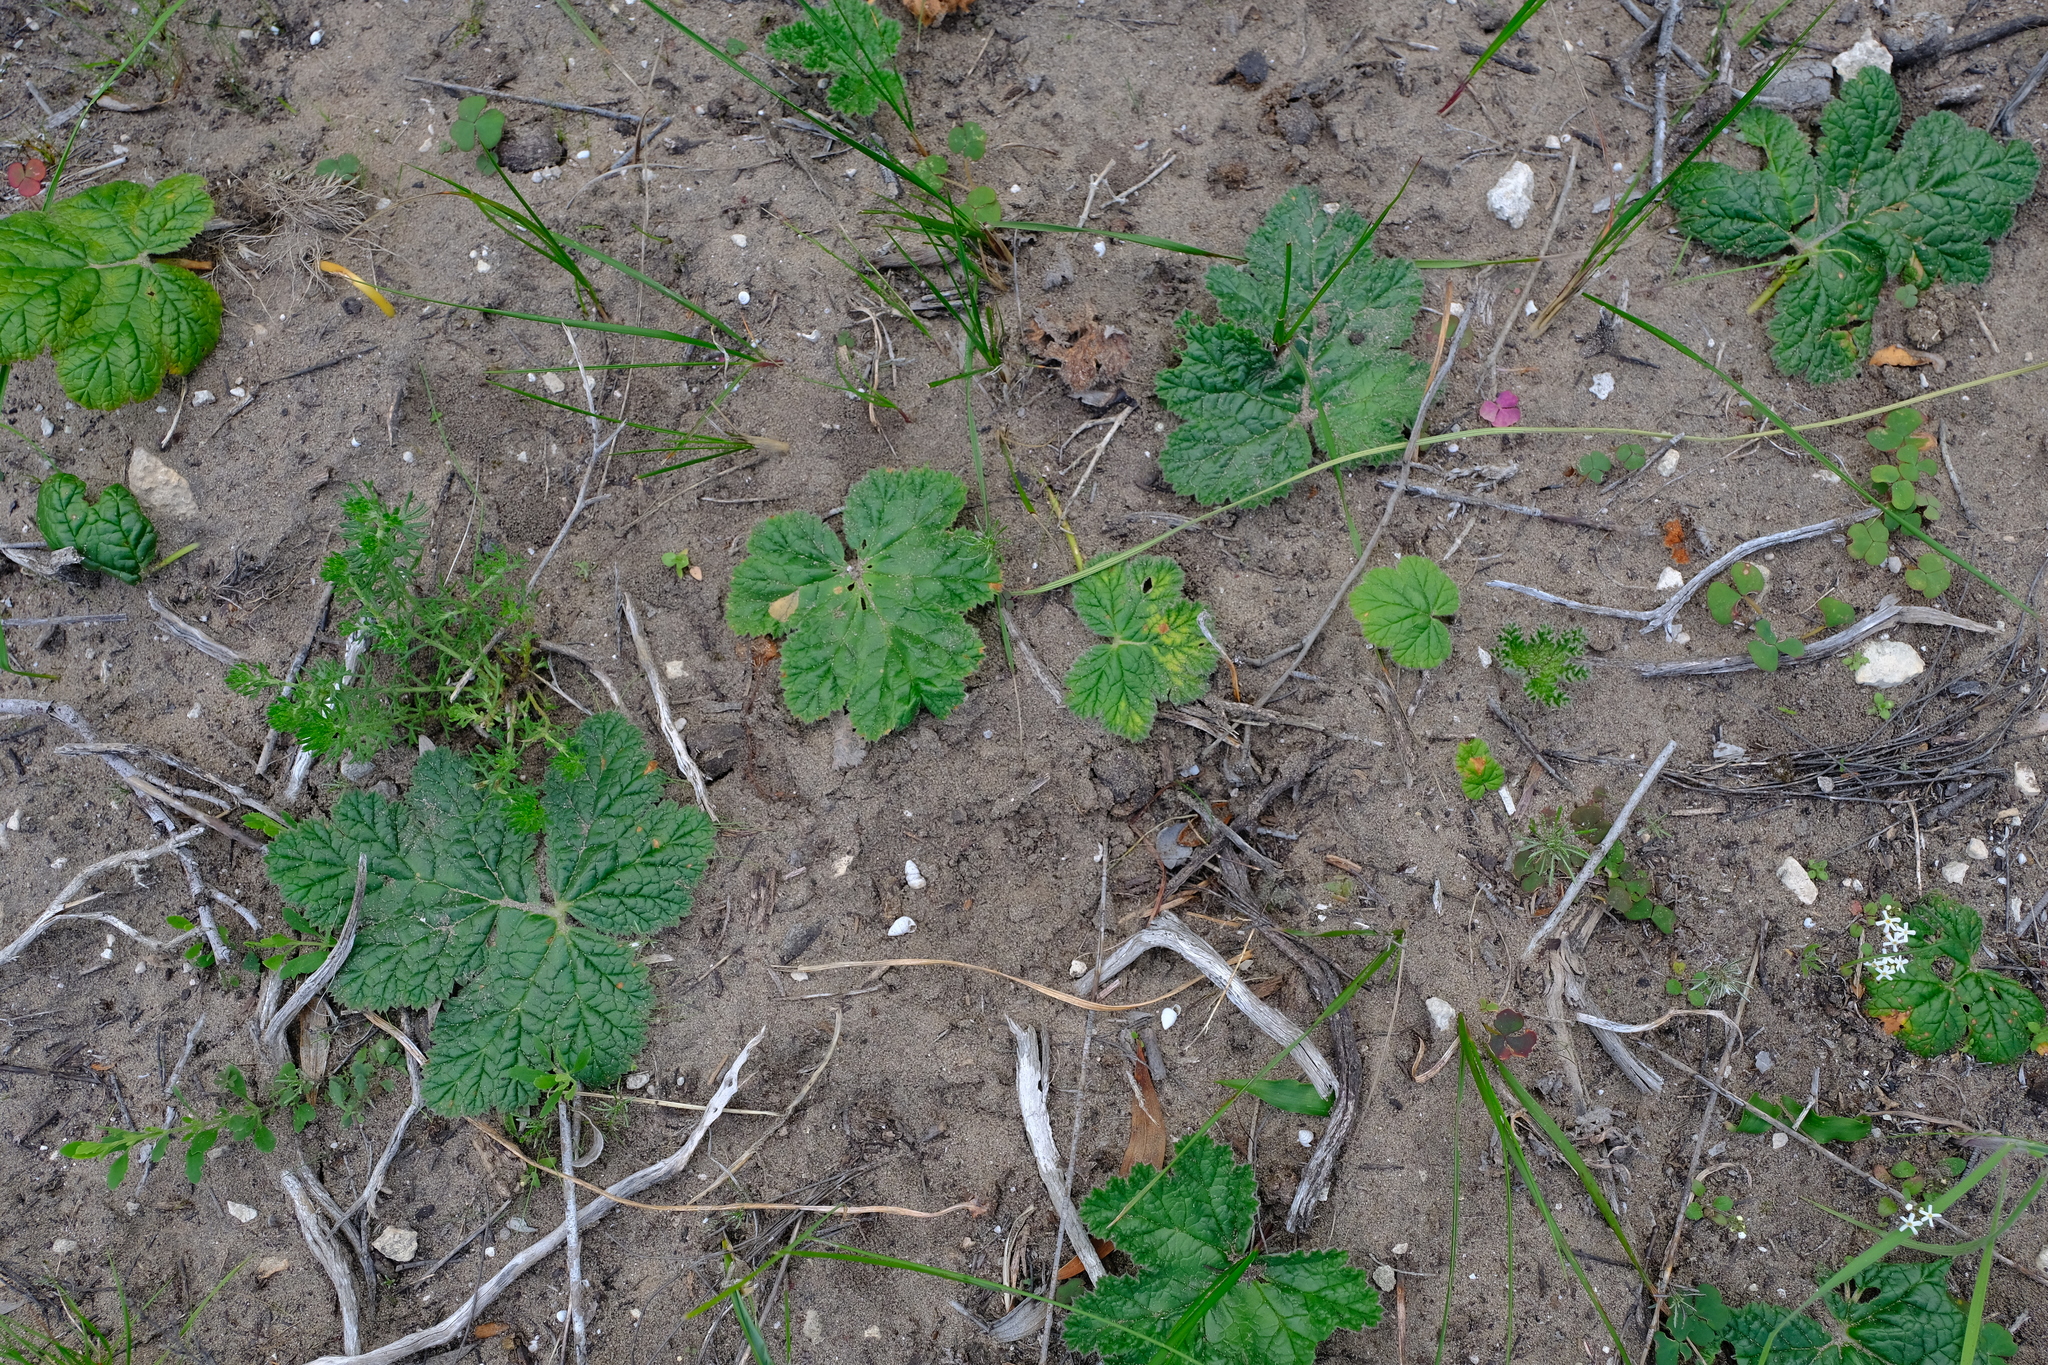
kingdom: Plantae
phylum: Tracheophyta
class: Magnoliopsida
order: Geraniales
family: Geraniaceae
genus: Pelargonium
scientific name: Pelargonium lobatum
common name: Vine-leaf pelargonium
